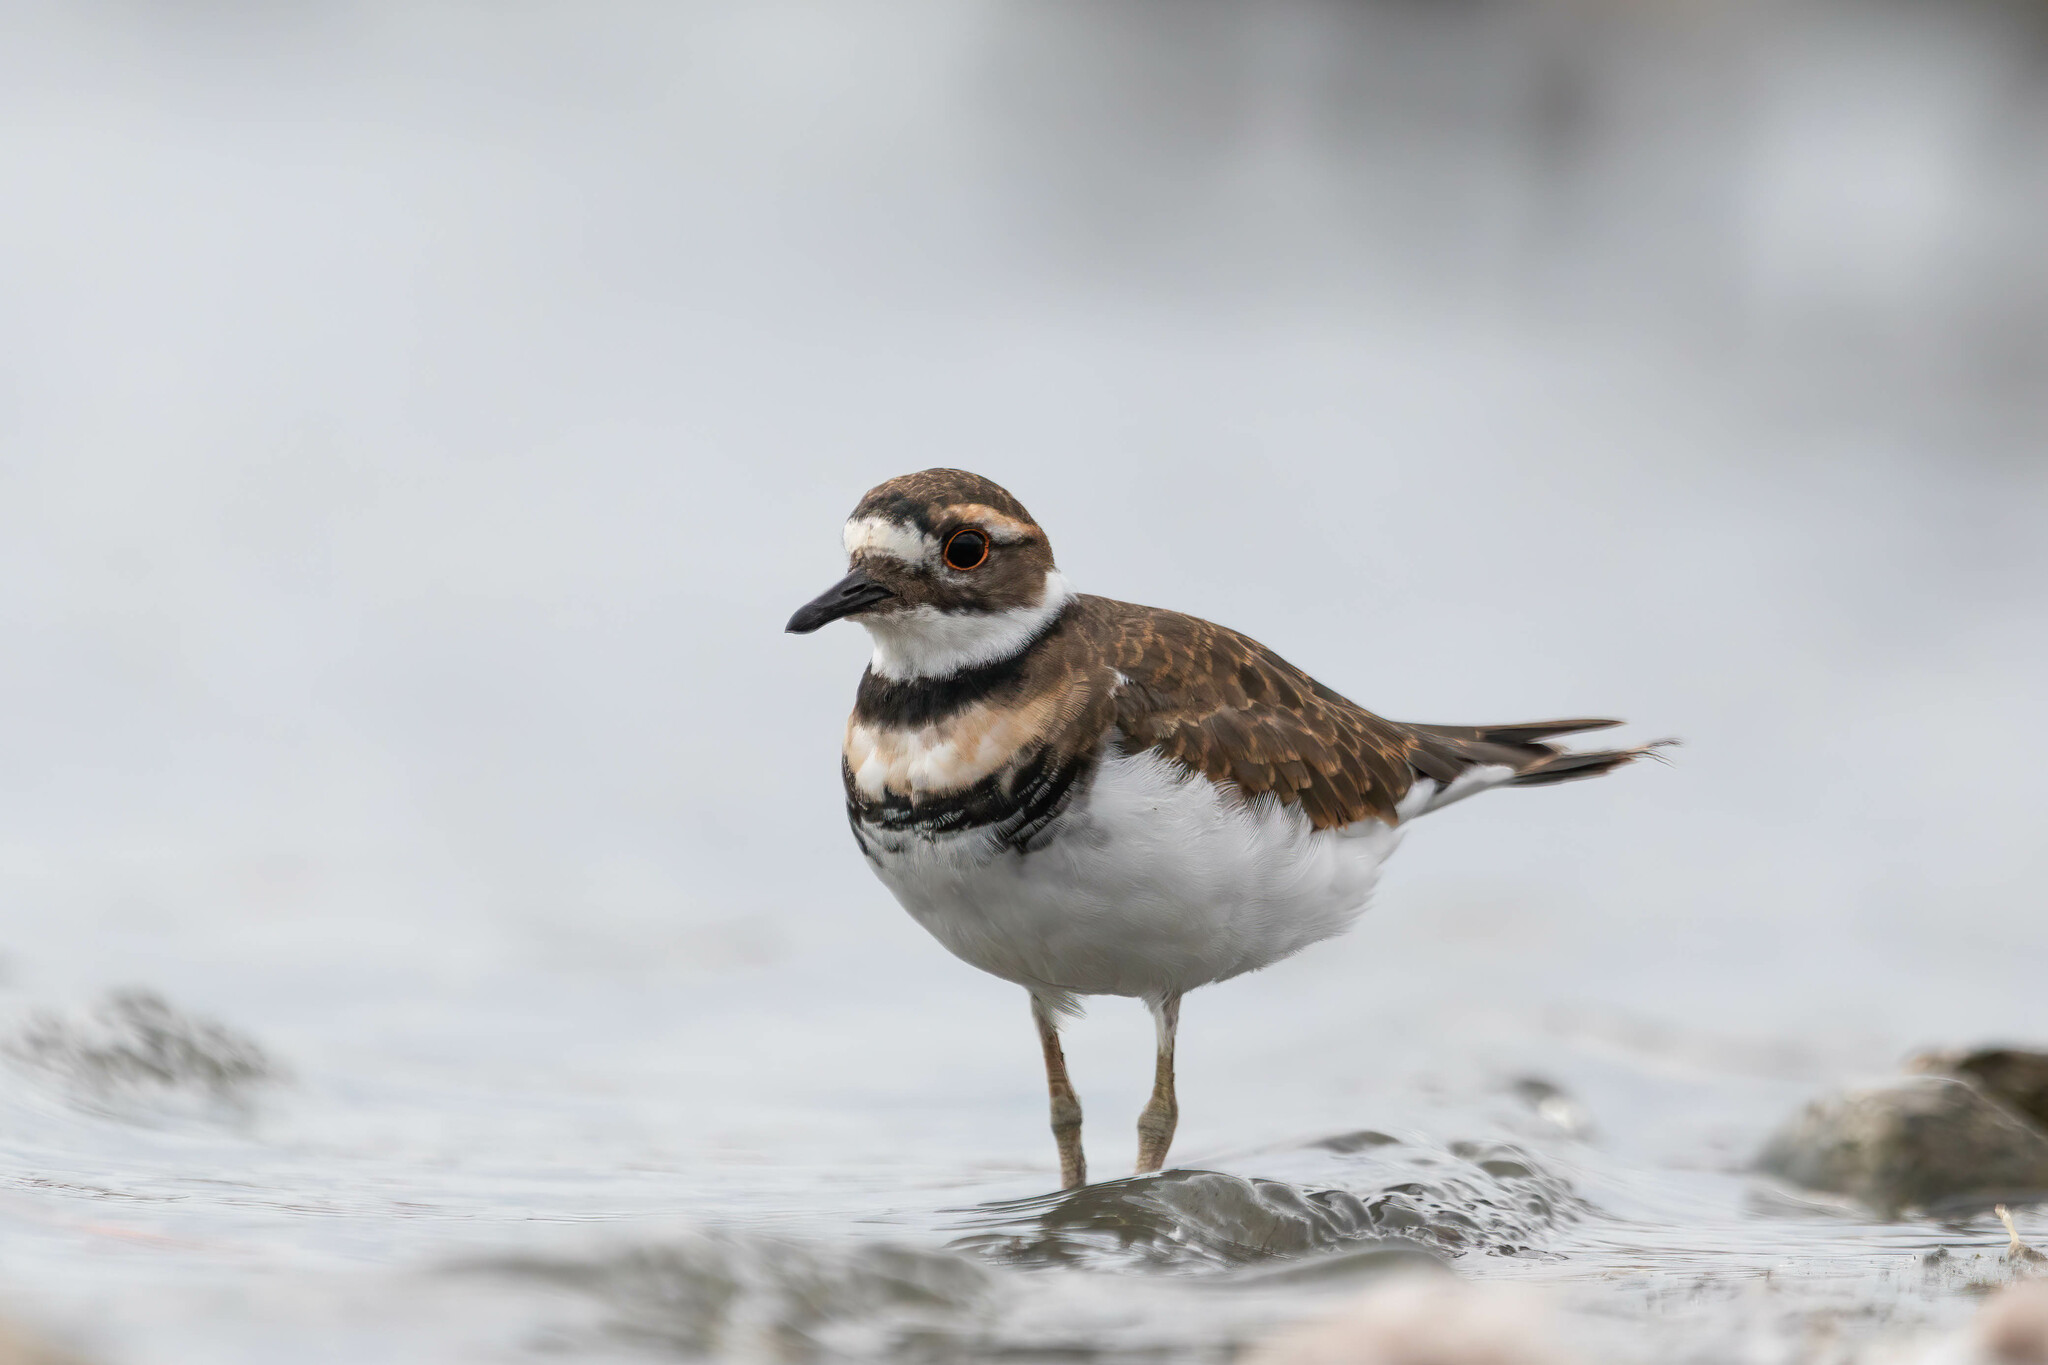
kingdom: Animalia
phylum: Chordata
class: Aves
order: Charadriiformes
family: Charadriidae
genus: Charadrius
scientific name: Charadrius vociferus
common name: Killdeer
